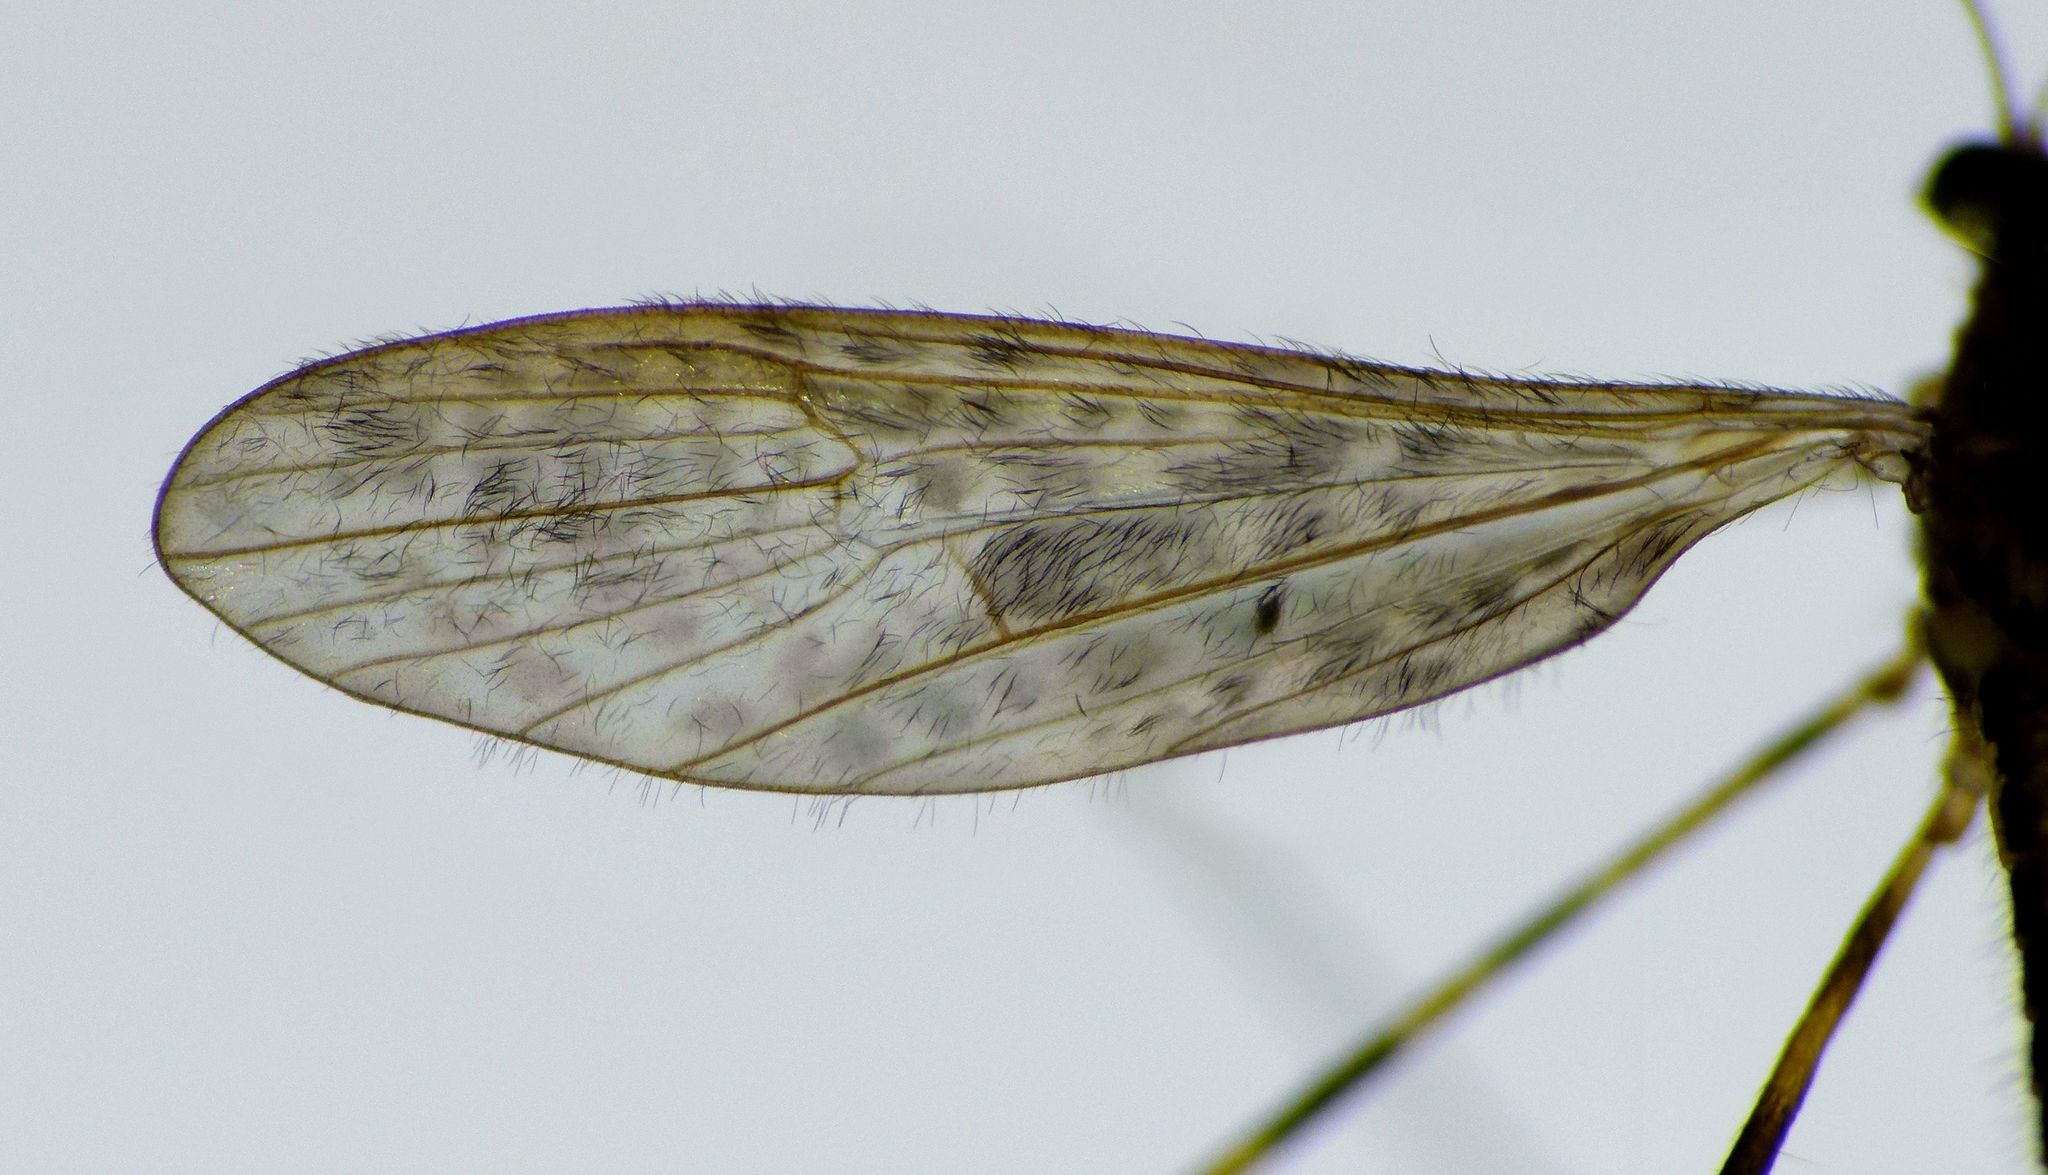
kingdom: Animalia
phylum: Arthropoda
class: Insecta
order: Diptera
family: Limoniidae
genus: Amphineurus
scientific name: Amphineurus hudsoni
